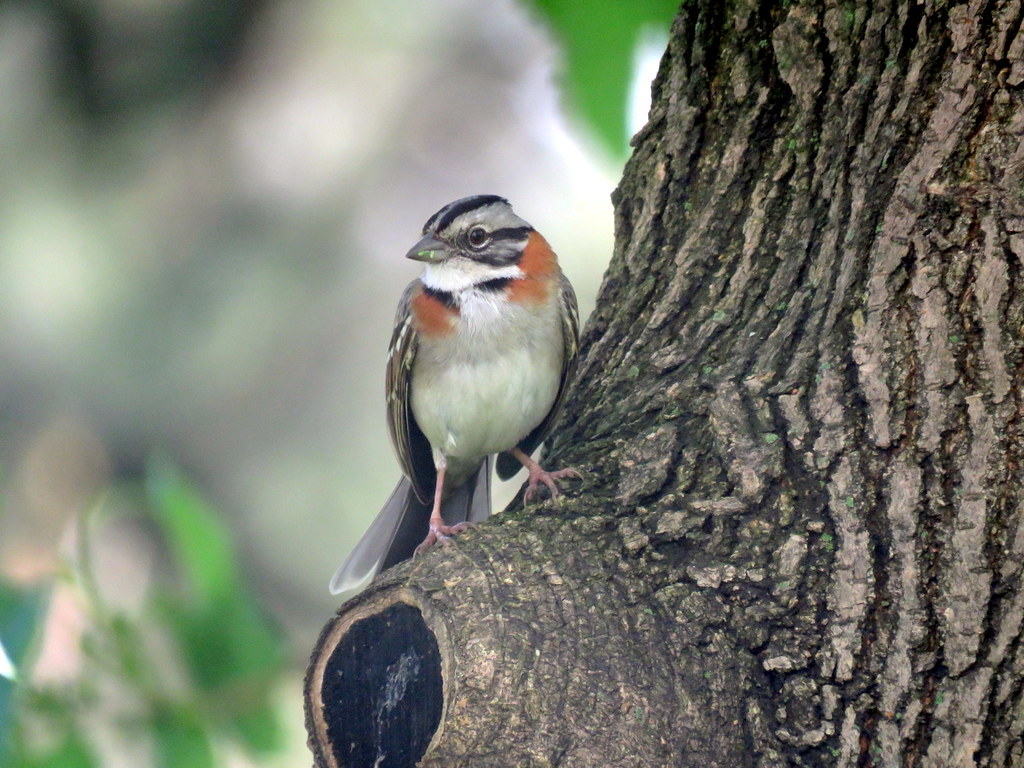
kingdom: Animalia
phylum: Chordata
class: Aves
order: Passeriformes
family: Passerellidae
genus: Zonotrichia
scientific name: Zonotrichia capensis
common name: Rufous-collared sparrow
